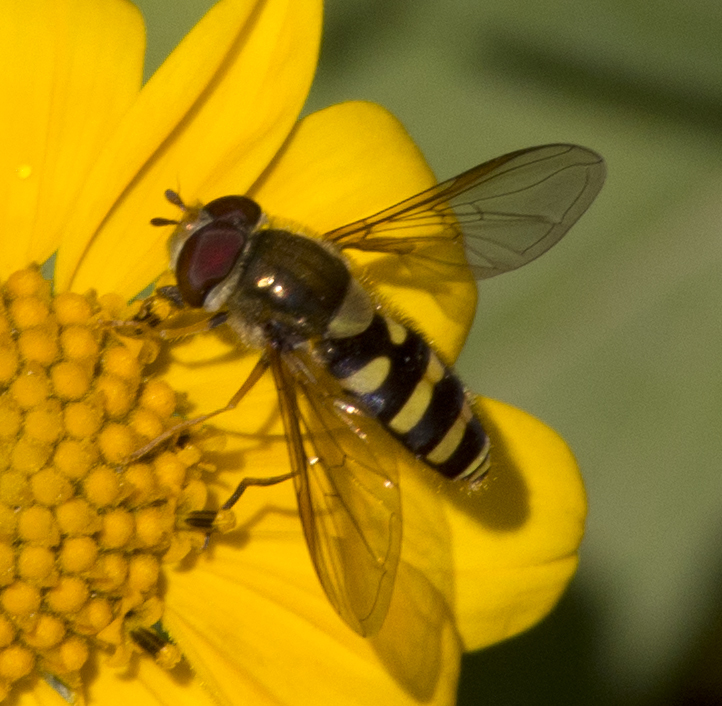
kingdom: Animalia
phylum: Arthropoda
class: Insecta
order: Diptera
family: Syrphidae
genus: Syrphus
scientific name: Syrphus opinator
